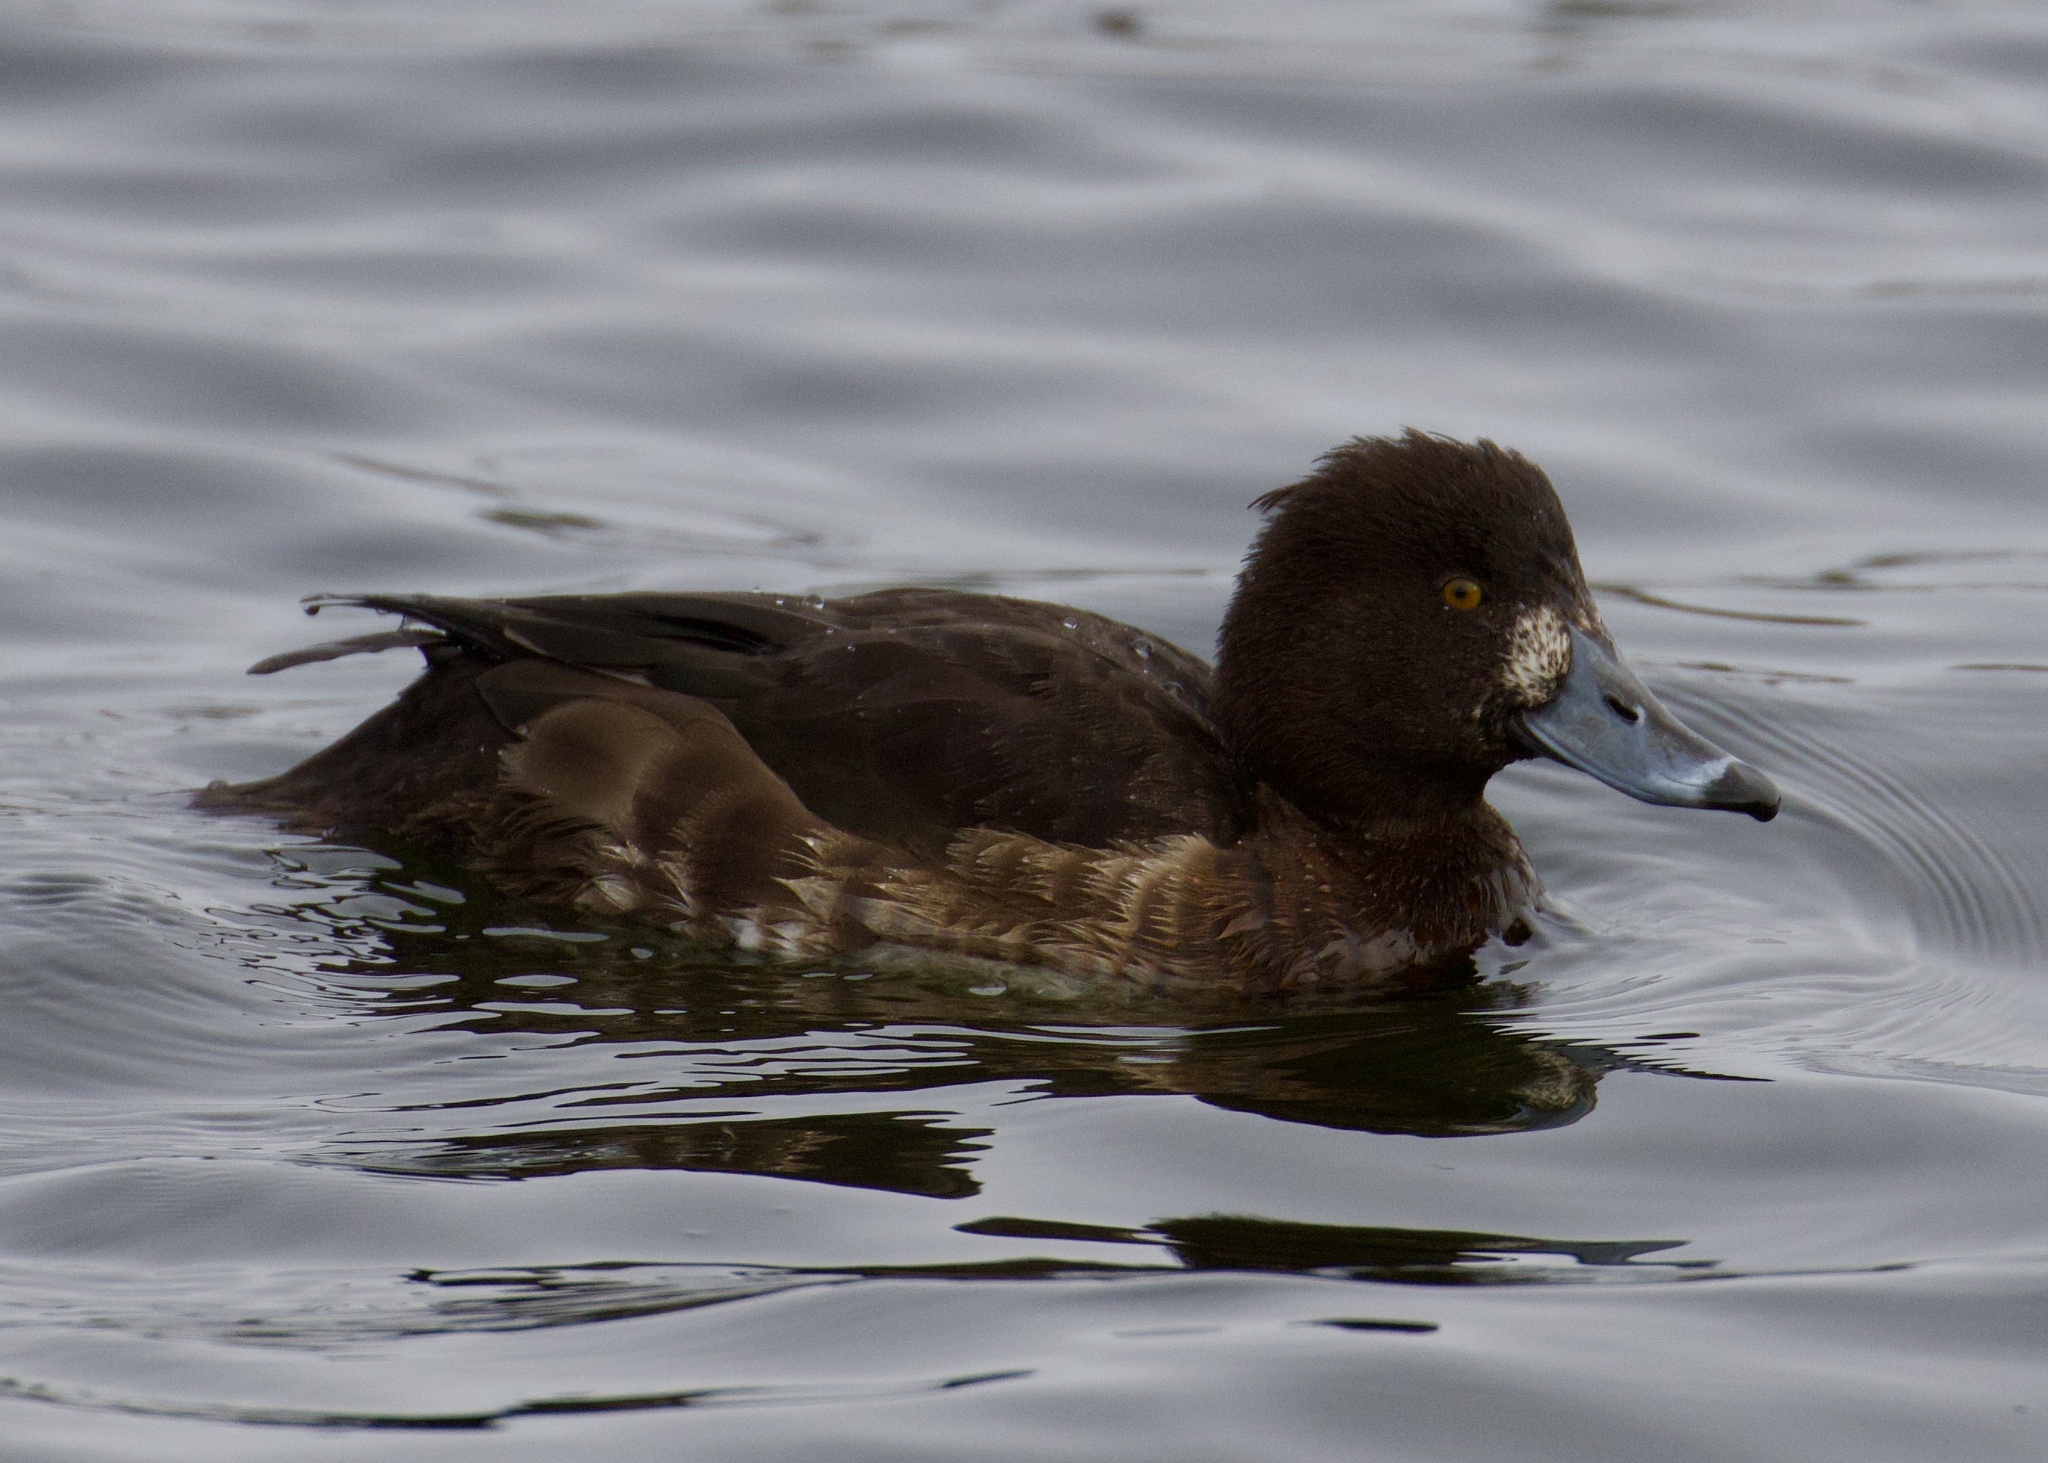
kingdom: Animalia
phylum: Chordata
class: Aves
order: Anseriformes
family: Anatidae
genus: Aythya
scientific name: Aythya fuligula
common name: Tufted duck
